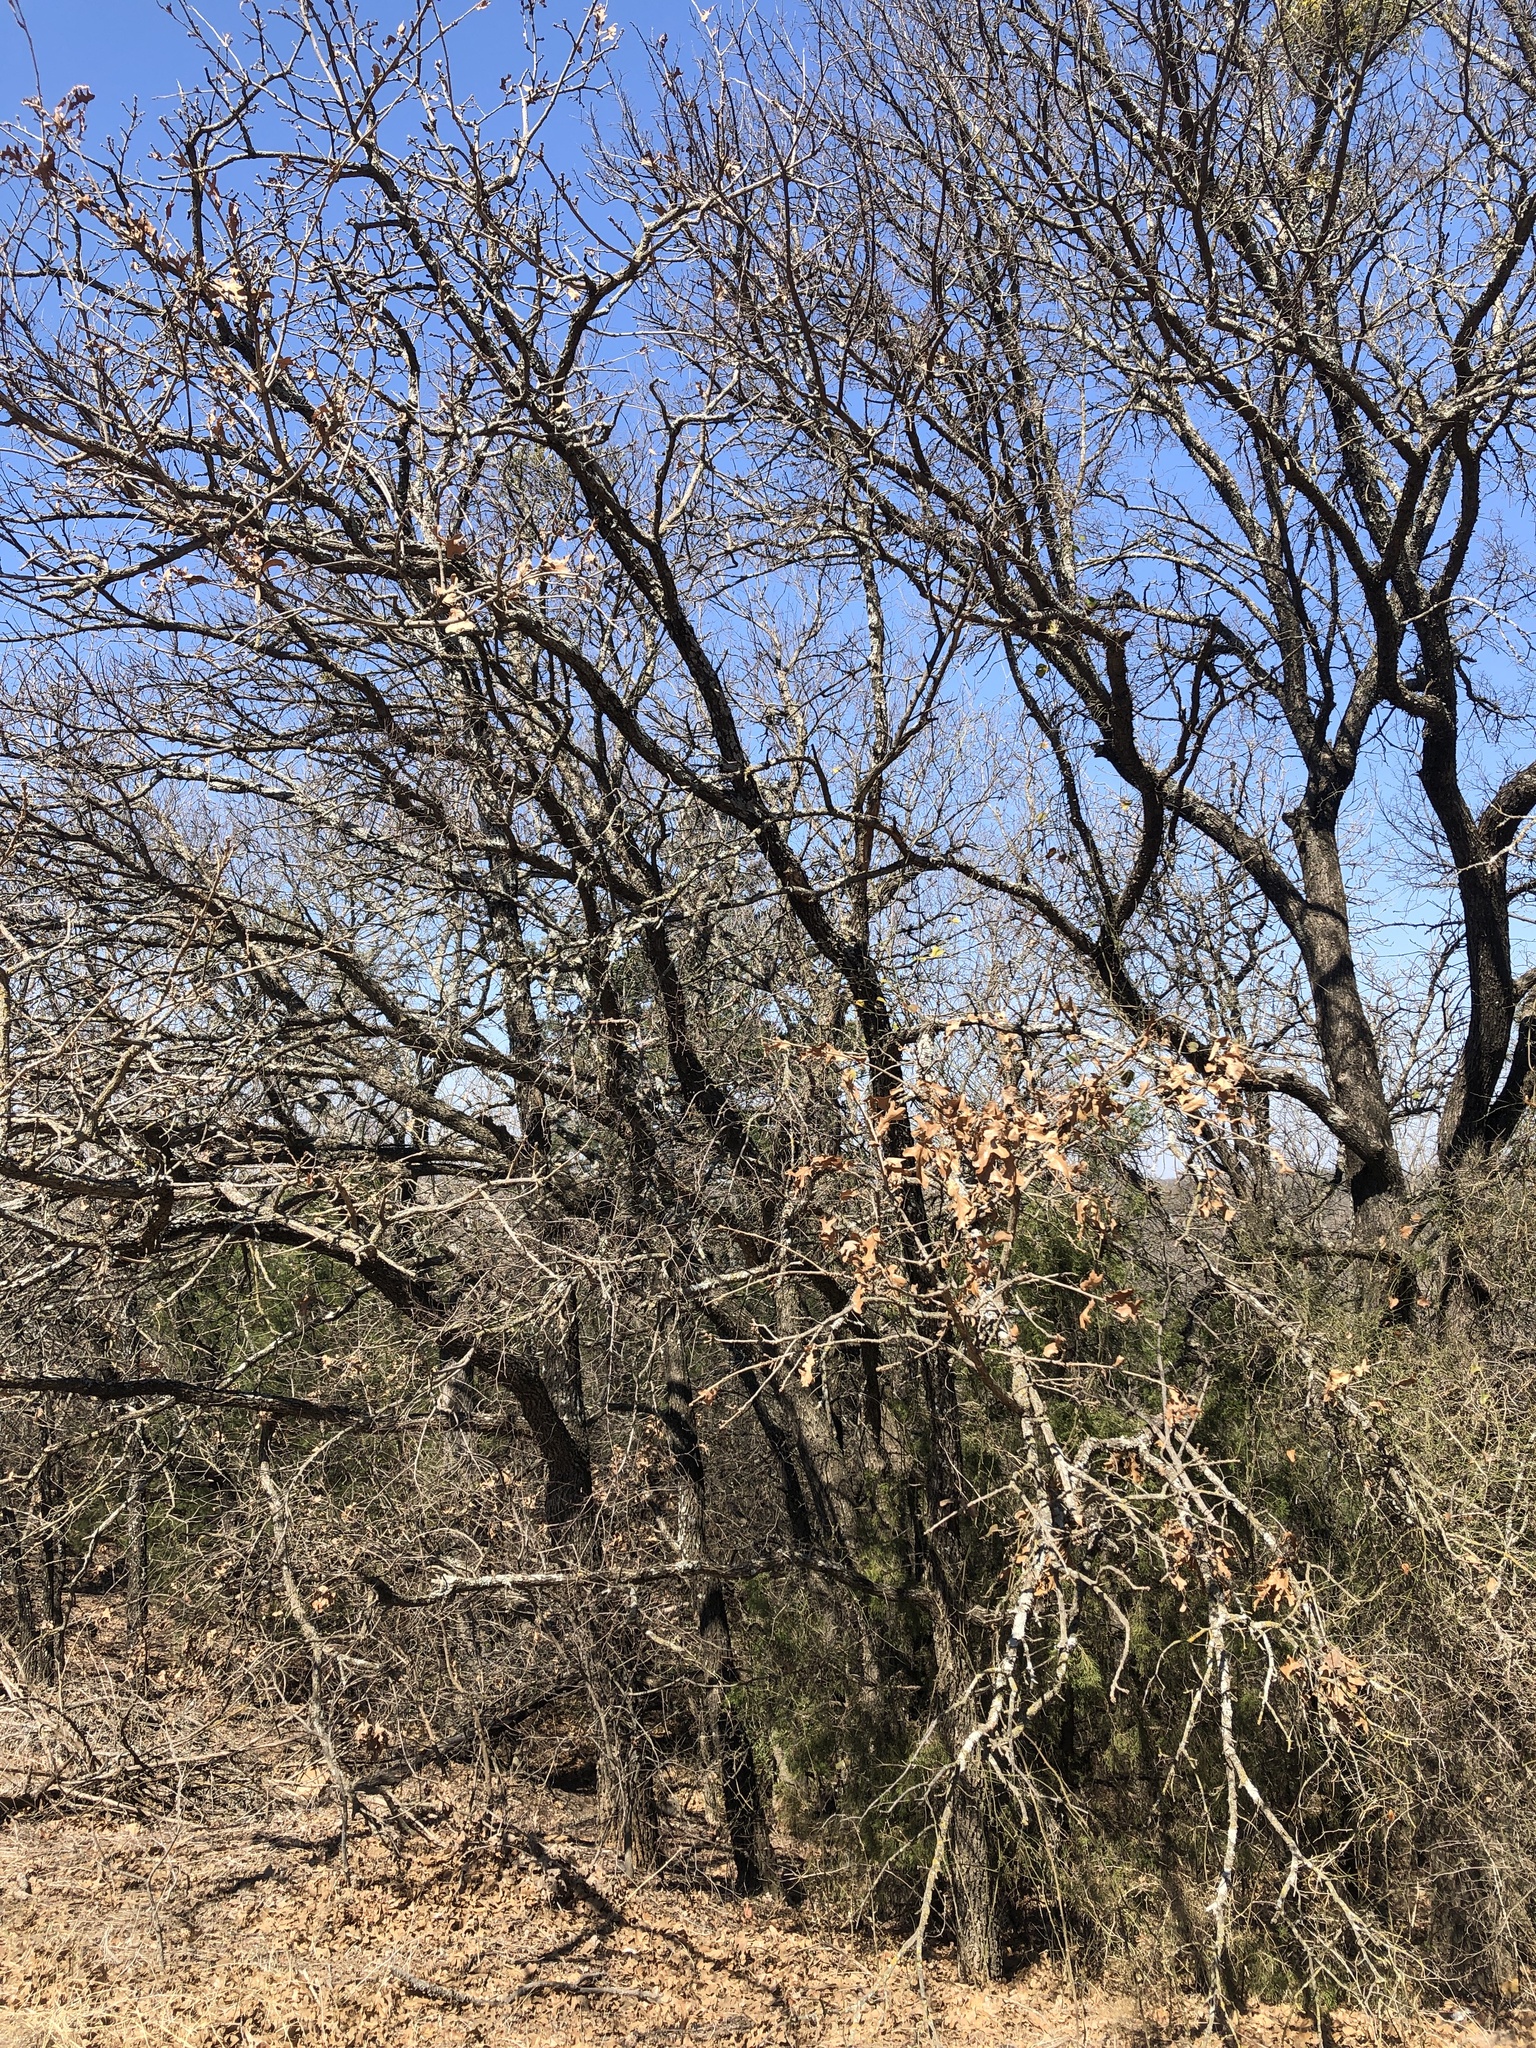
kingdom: Plantae
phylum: Tracheophyta
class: Magnoliopsida
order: Fagales
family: Fagaceae
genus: Quercus
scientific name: Quercus stellata
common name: Post oak
